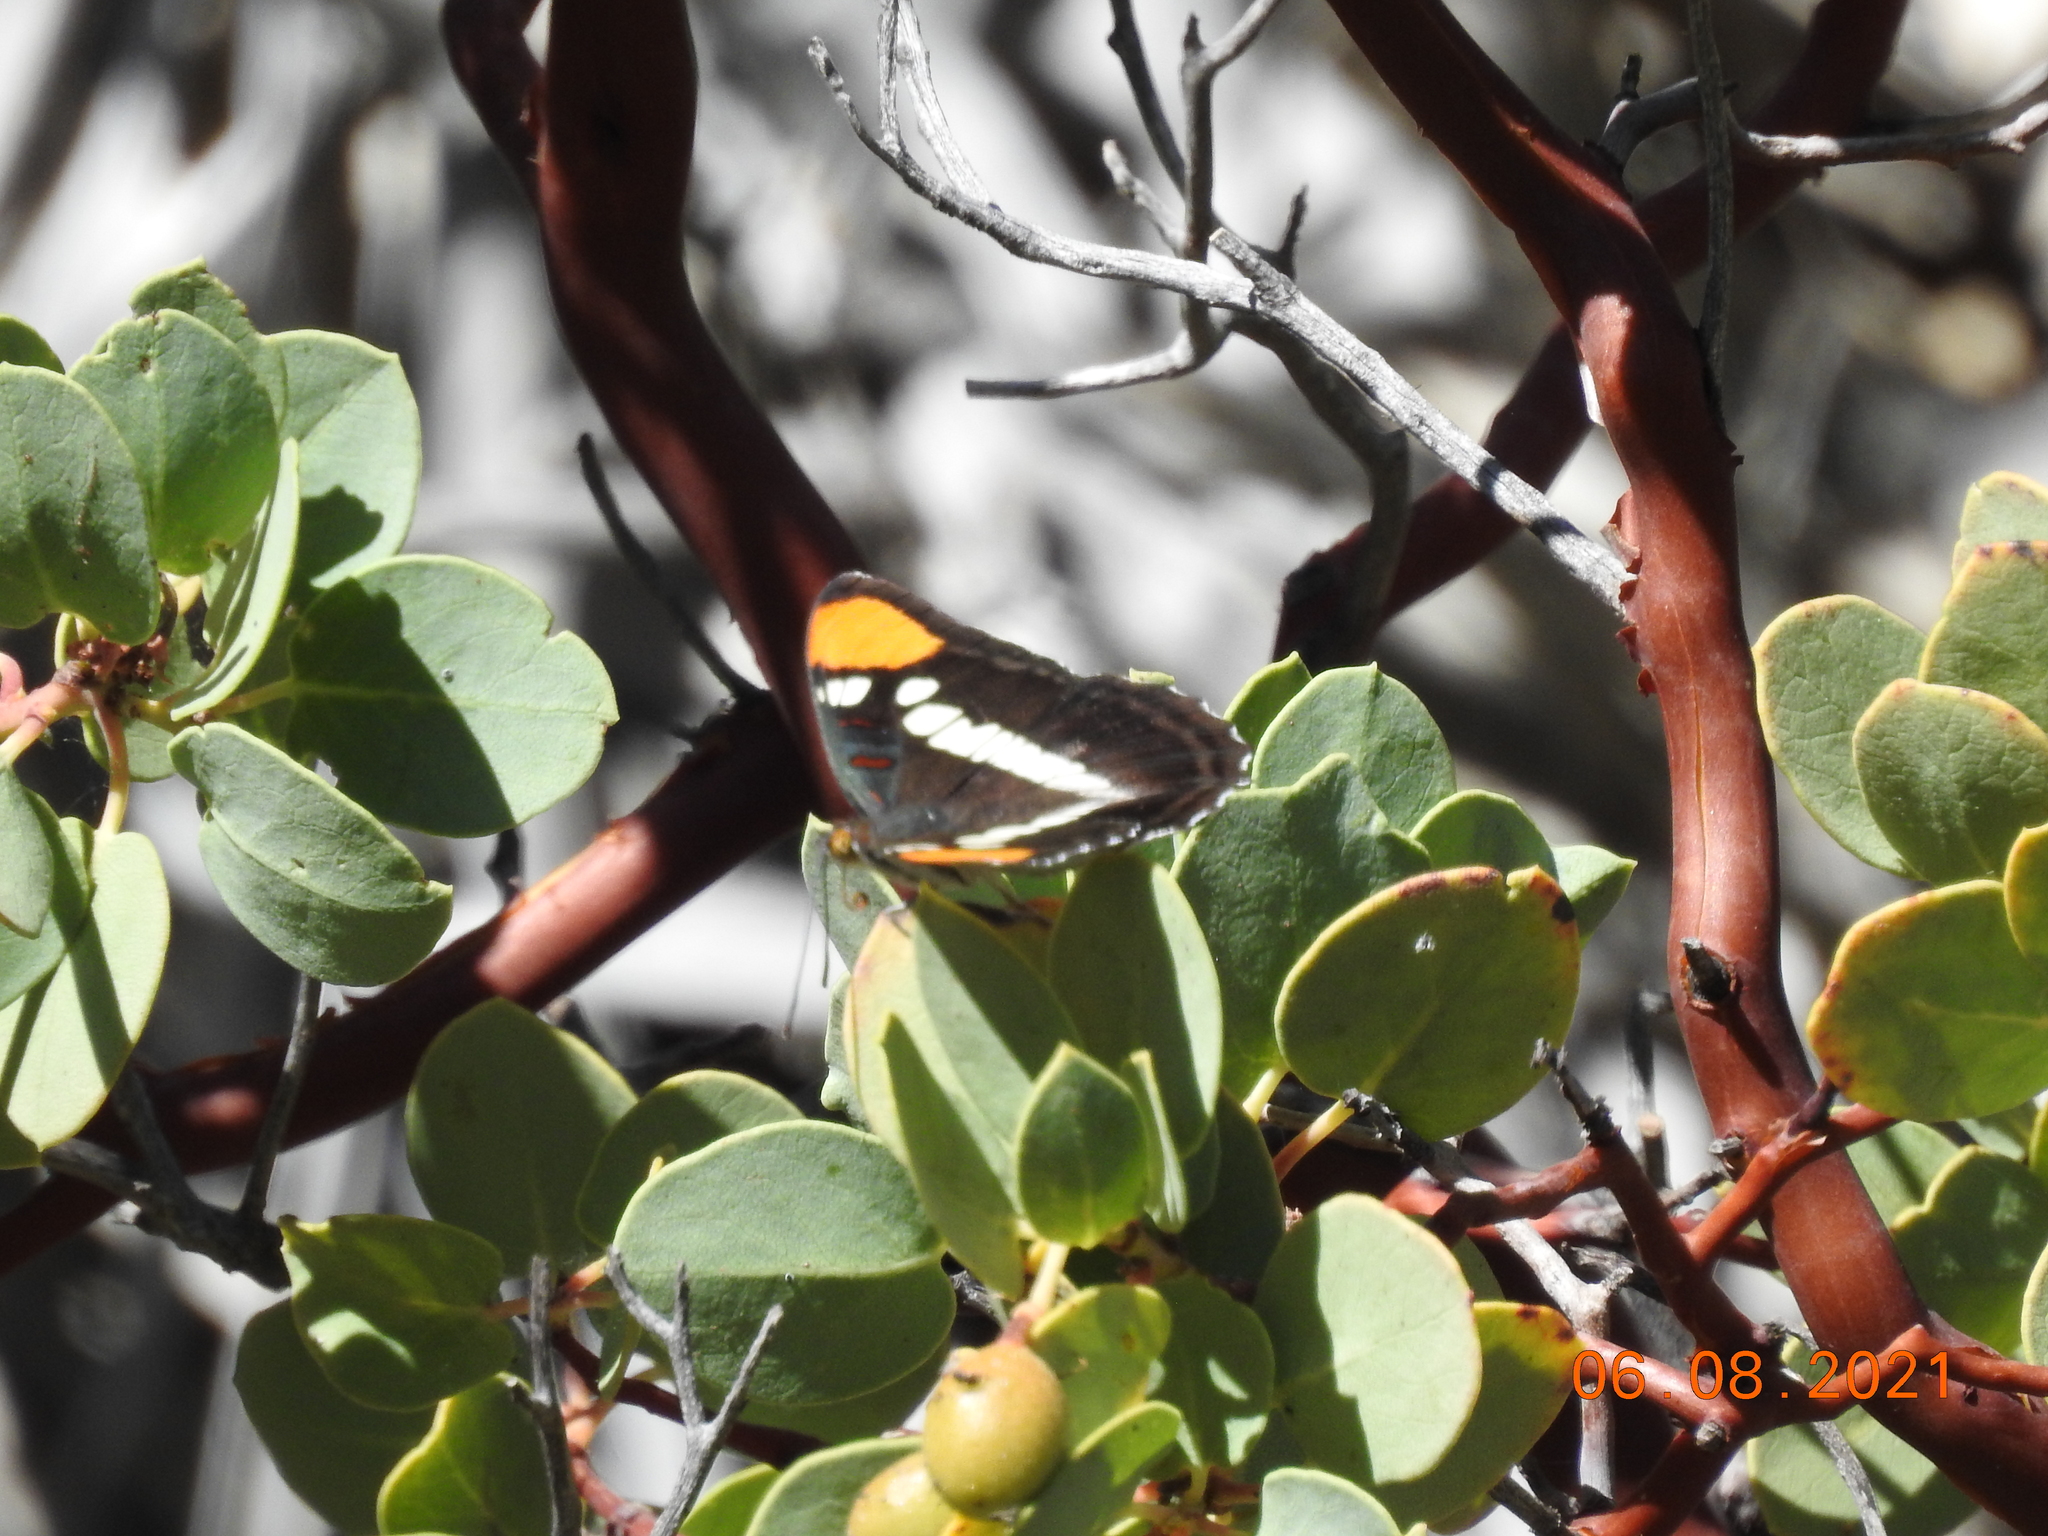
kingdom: Animalia
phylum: Arthropoda
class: Insecta
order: Lepidoptera
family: Nymphalidae
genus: Limenitis
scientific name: Limenitis bredowii
